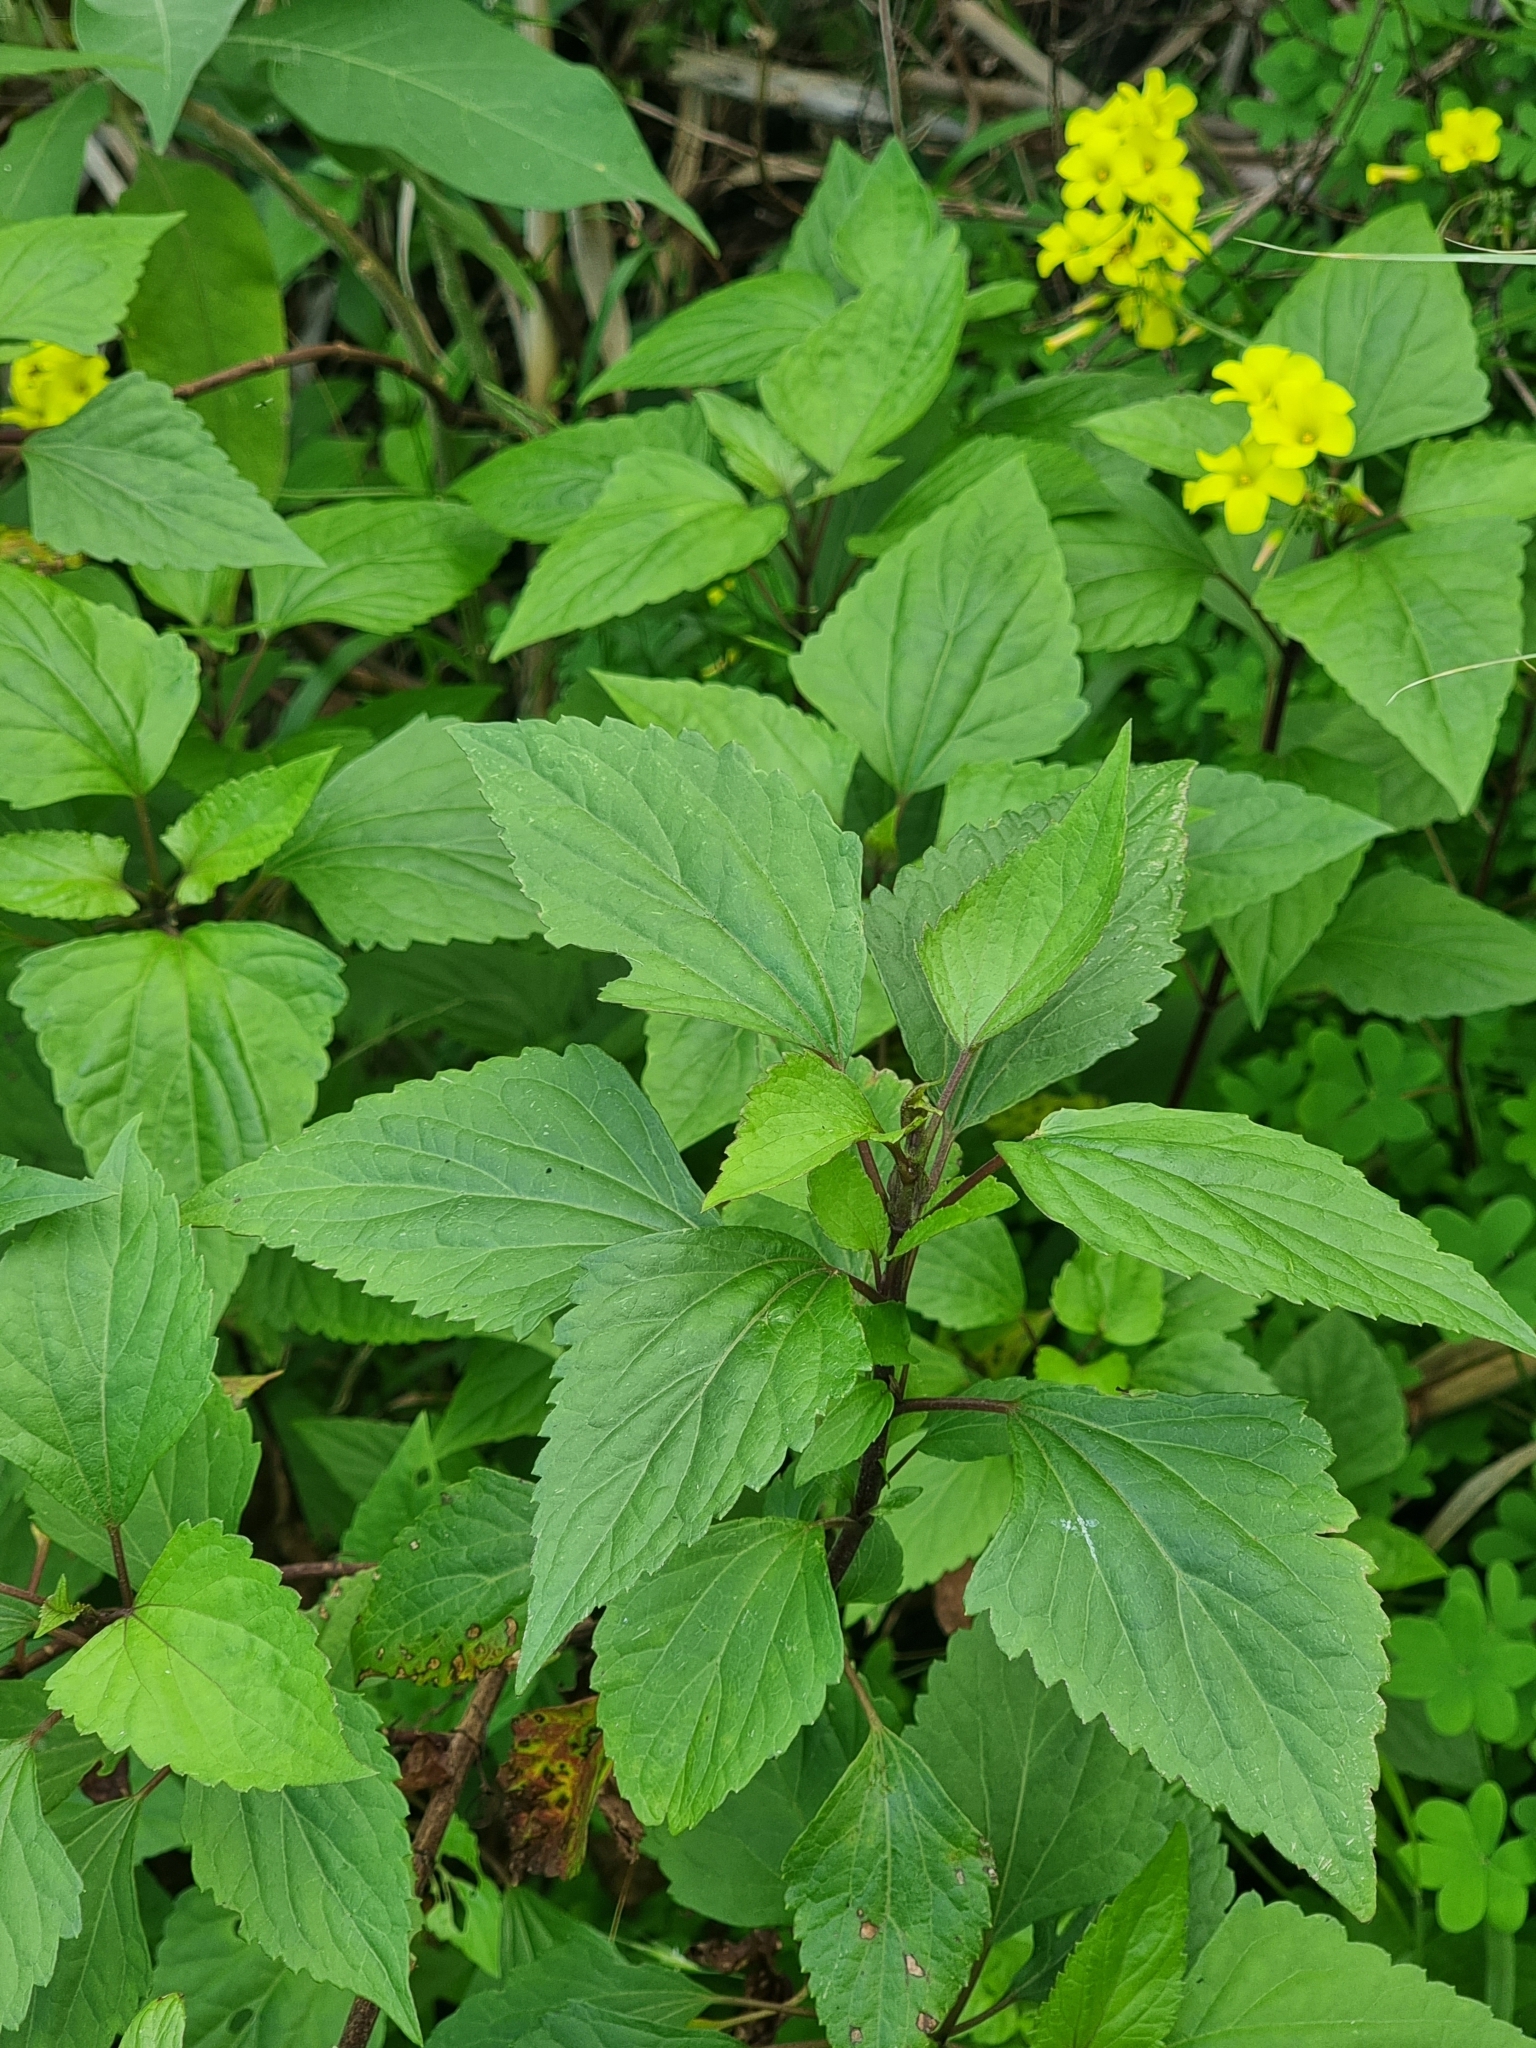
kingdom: Plantae
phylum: Tracheophyta
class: Magnoliopsida
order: Asterales
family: Asteraceae
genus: Ageratina
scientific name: Ageratina adenophora
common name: Sticky snakeroot
